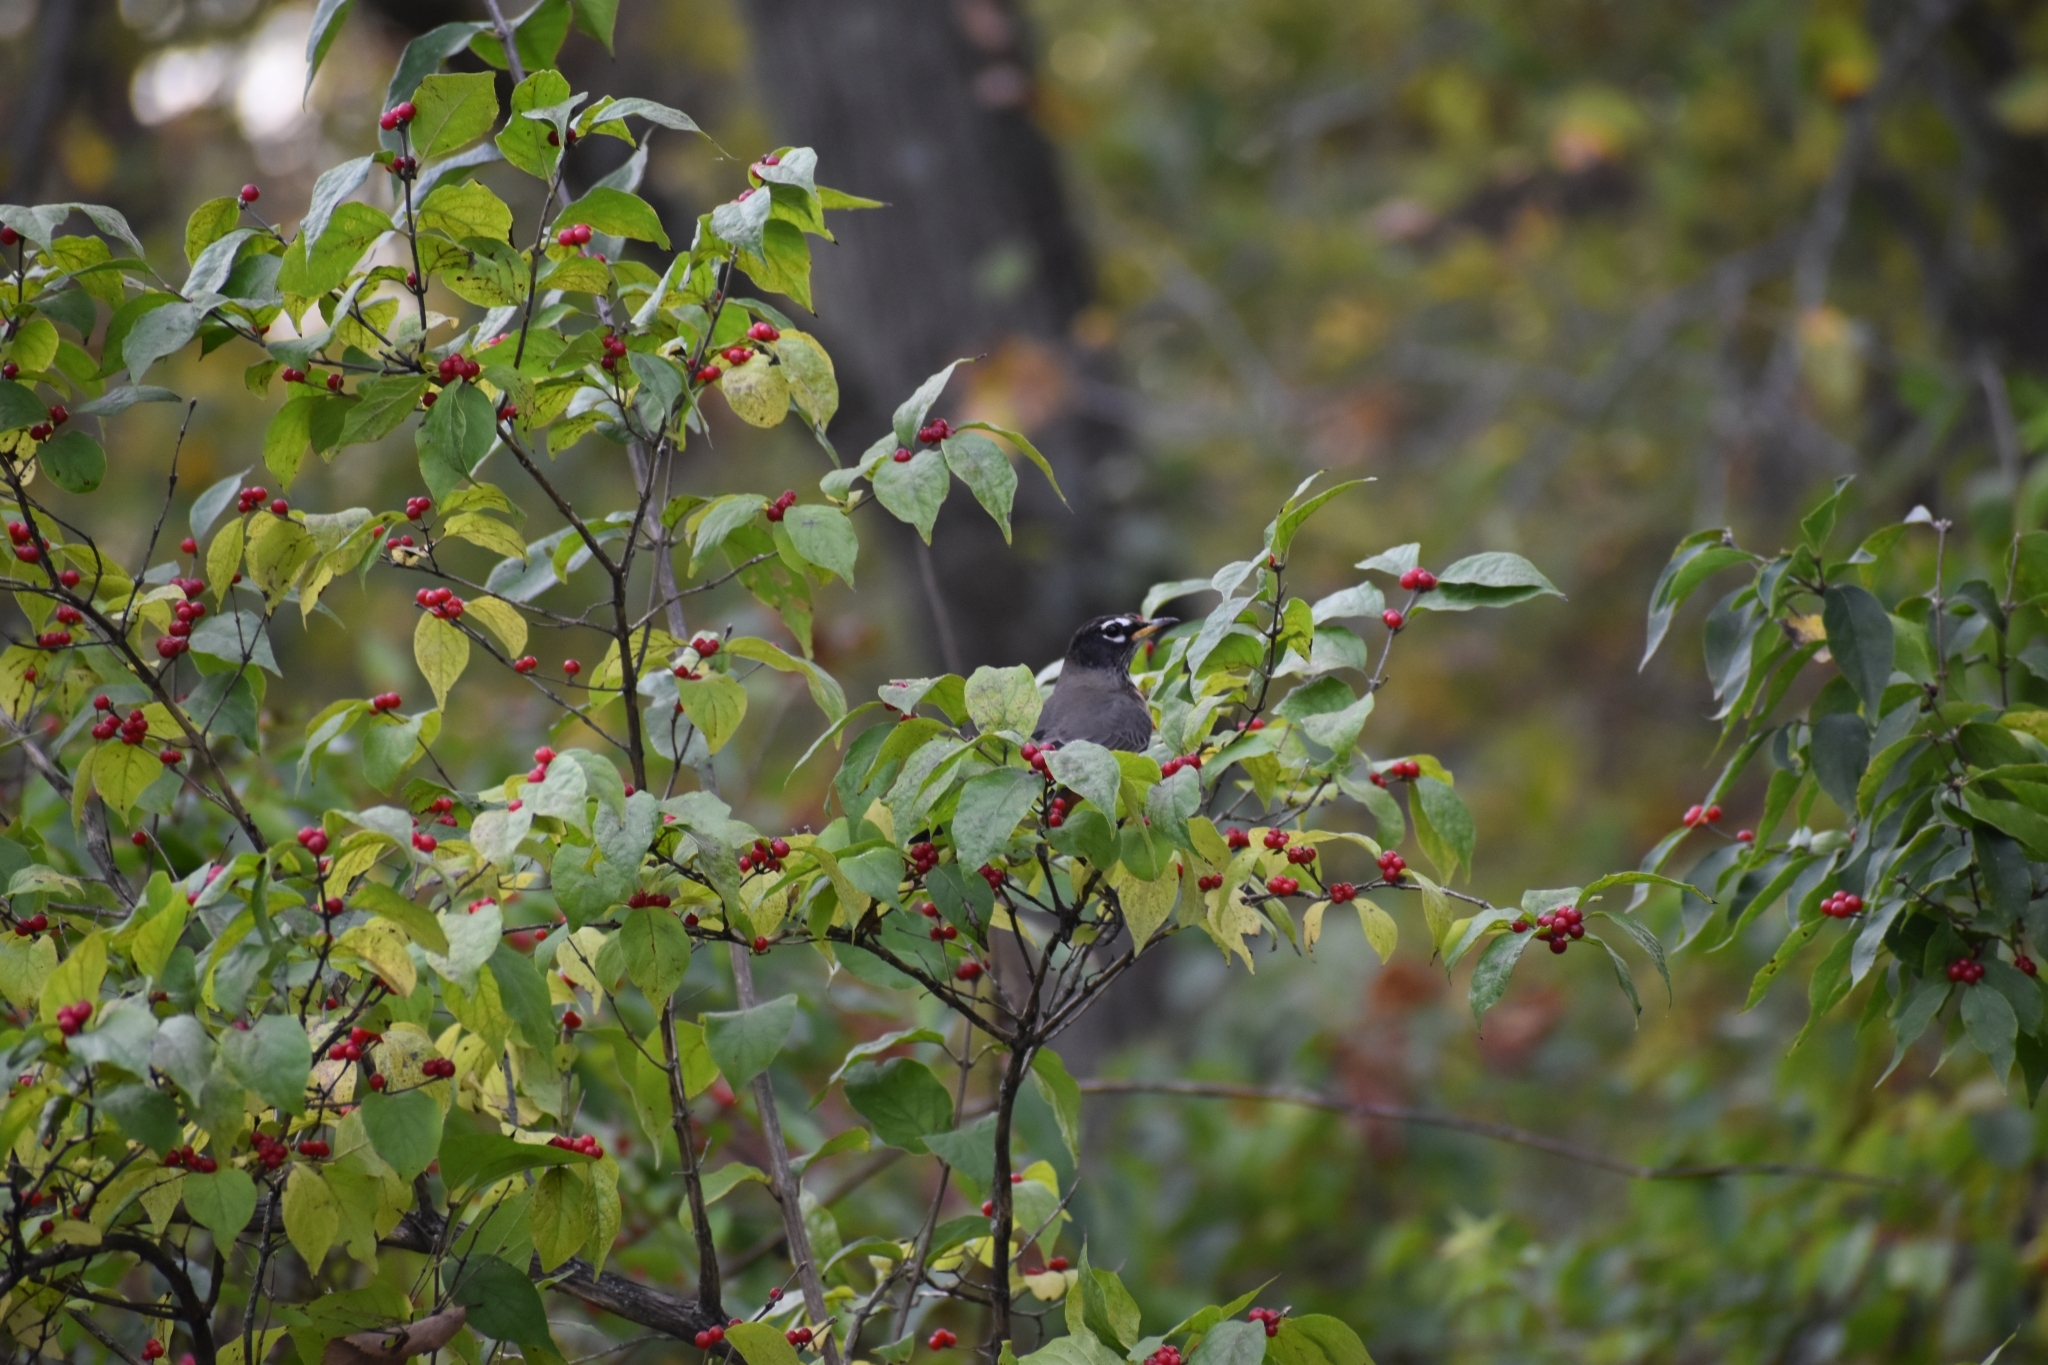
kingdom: Animalia
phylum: Chordata
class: Aves
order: Passeriformes
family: Turdidae
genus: Turdus
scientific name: Turdus migratorius
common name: American robin
